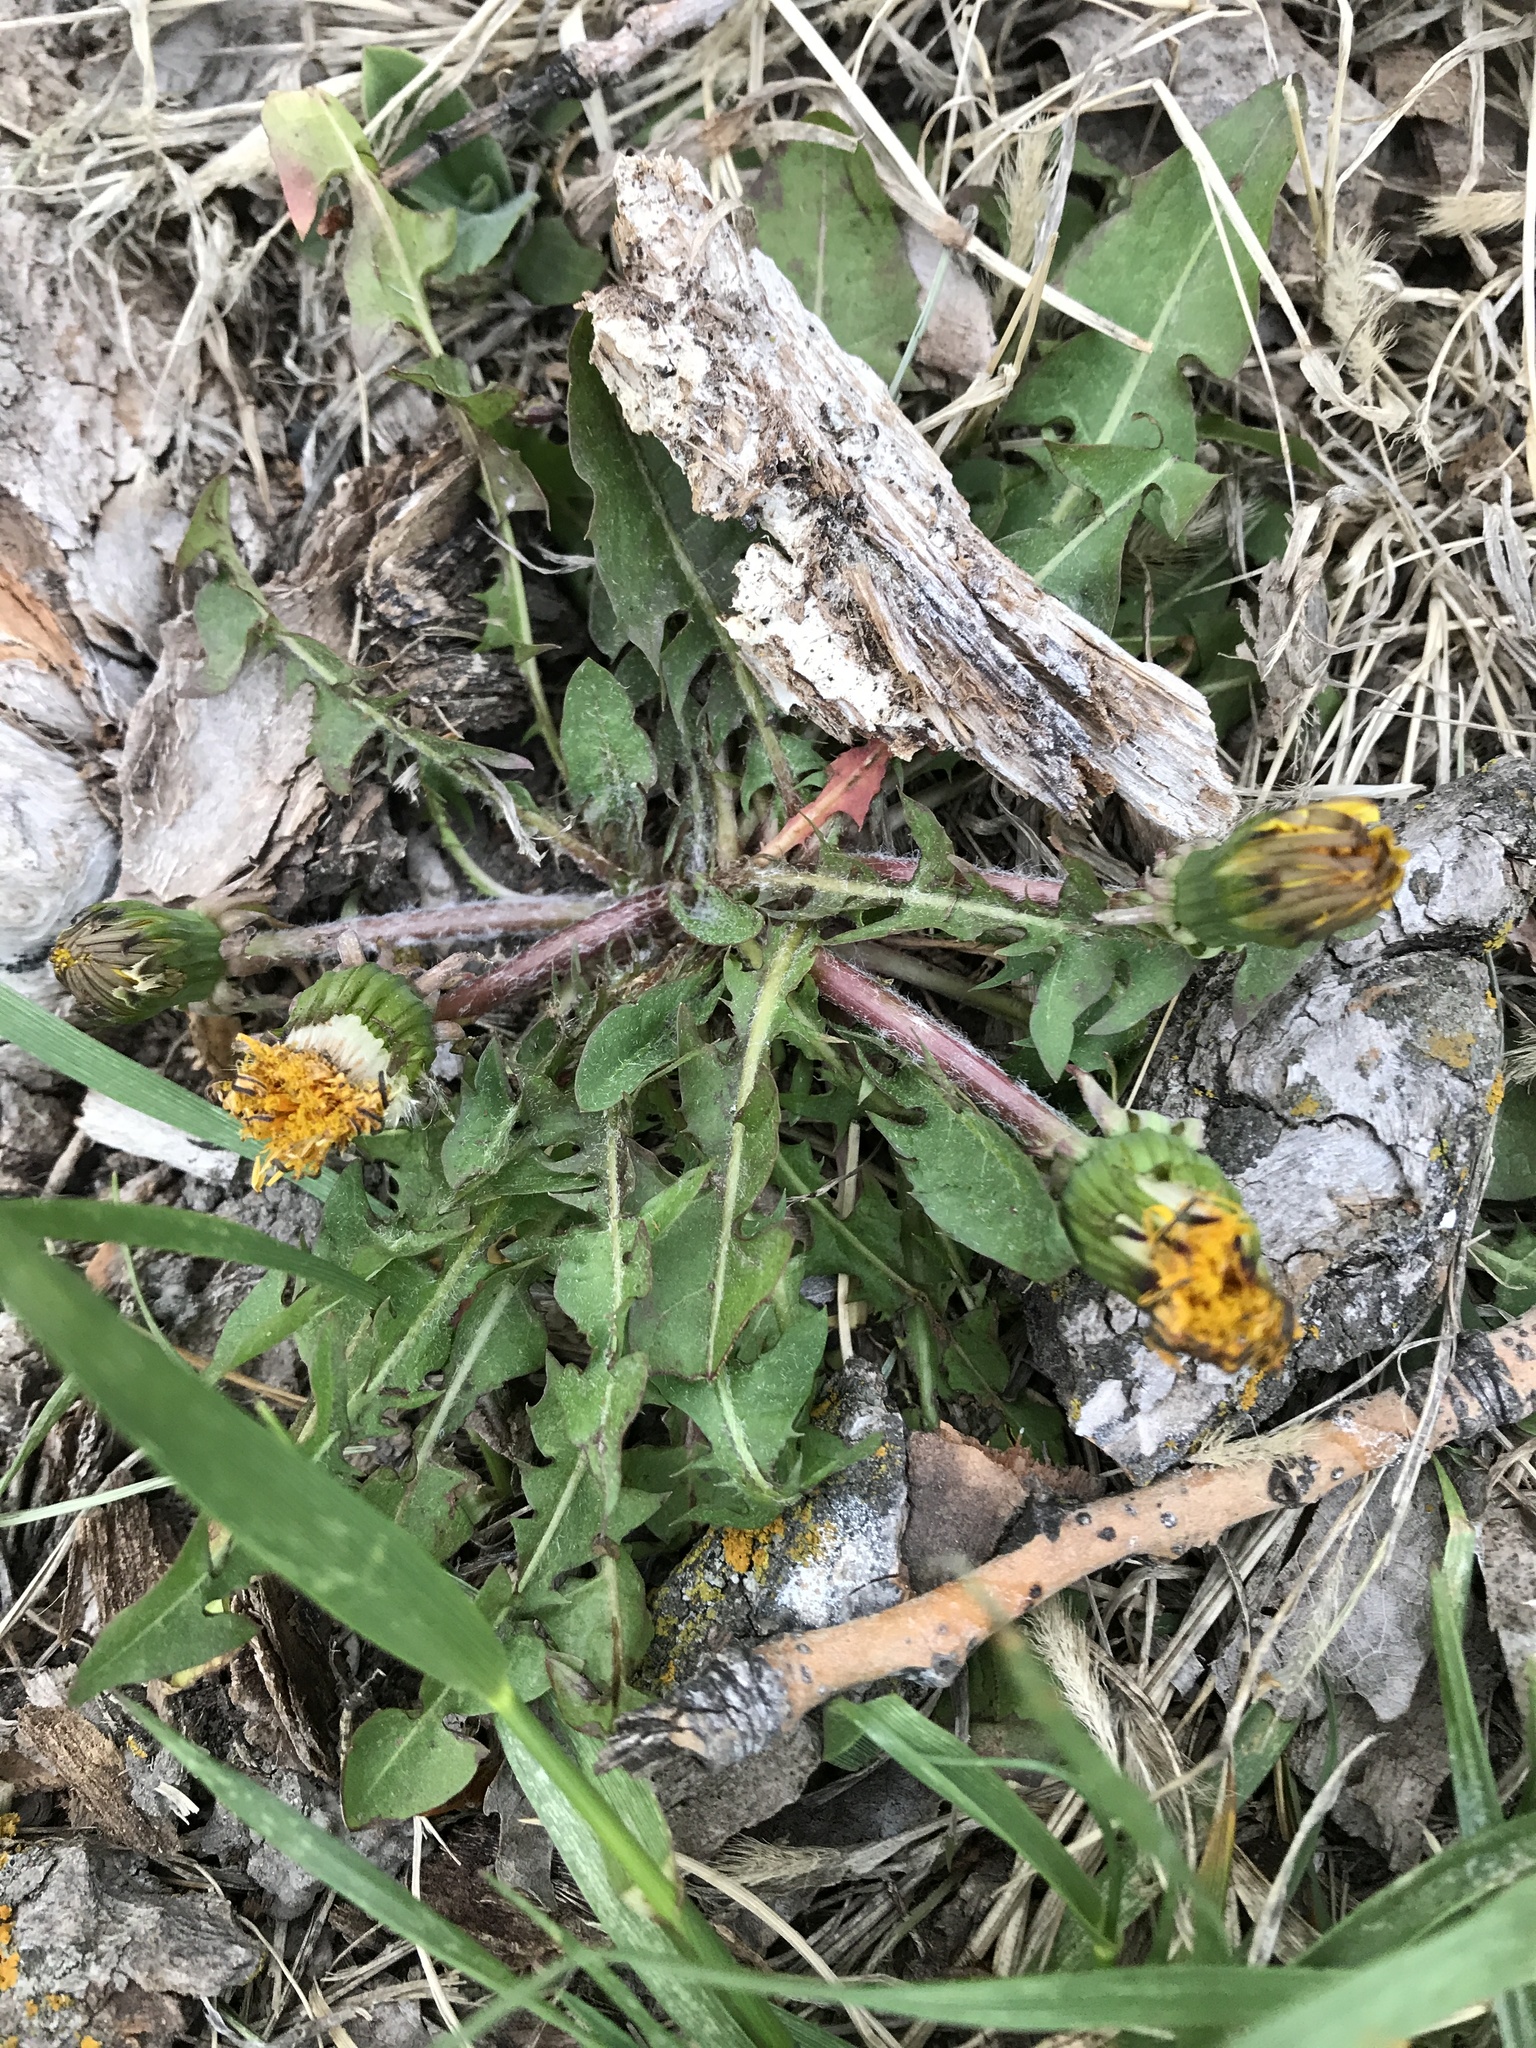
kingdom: Plantae
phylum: Tracheophyta
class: Magnoliopsida
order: Asterales
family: Asteraceae
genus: Taraxacum
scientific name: Taraxacum officinale
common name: Common dandelion
